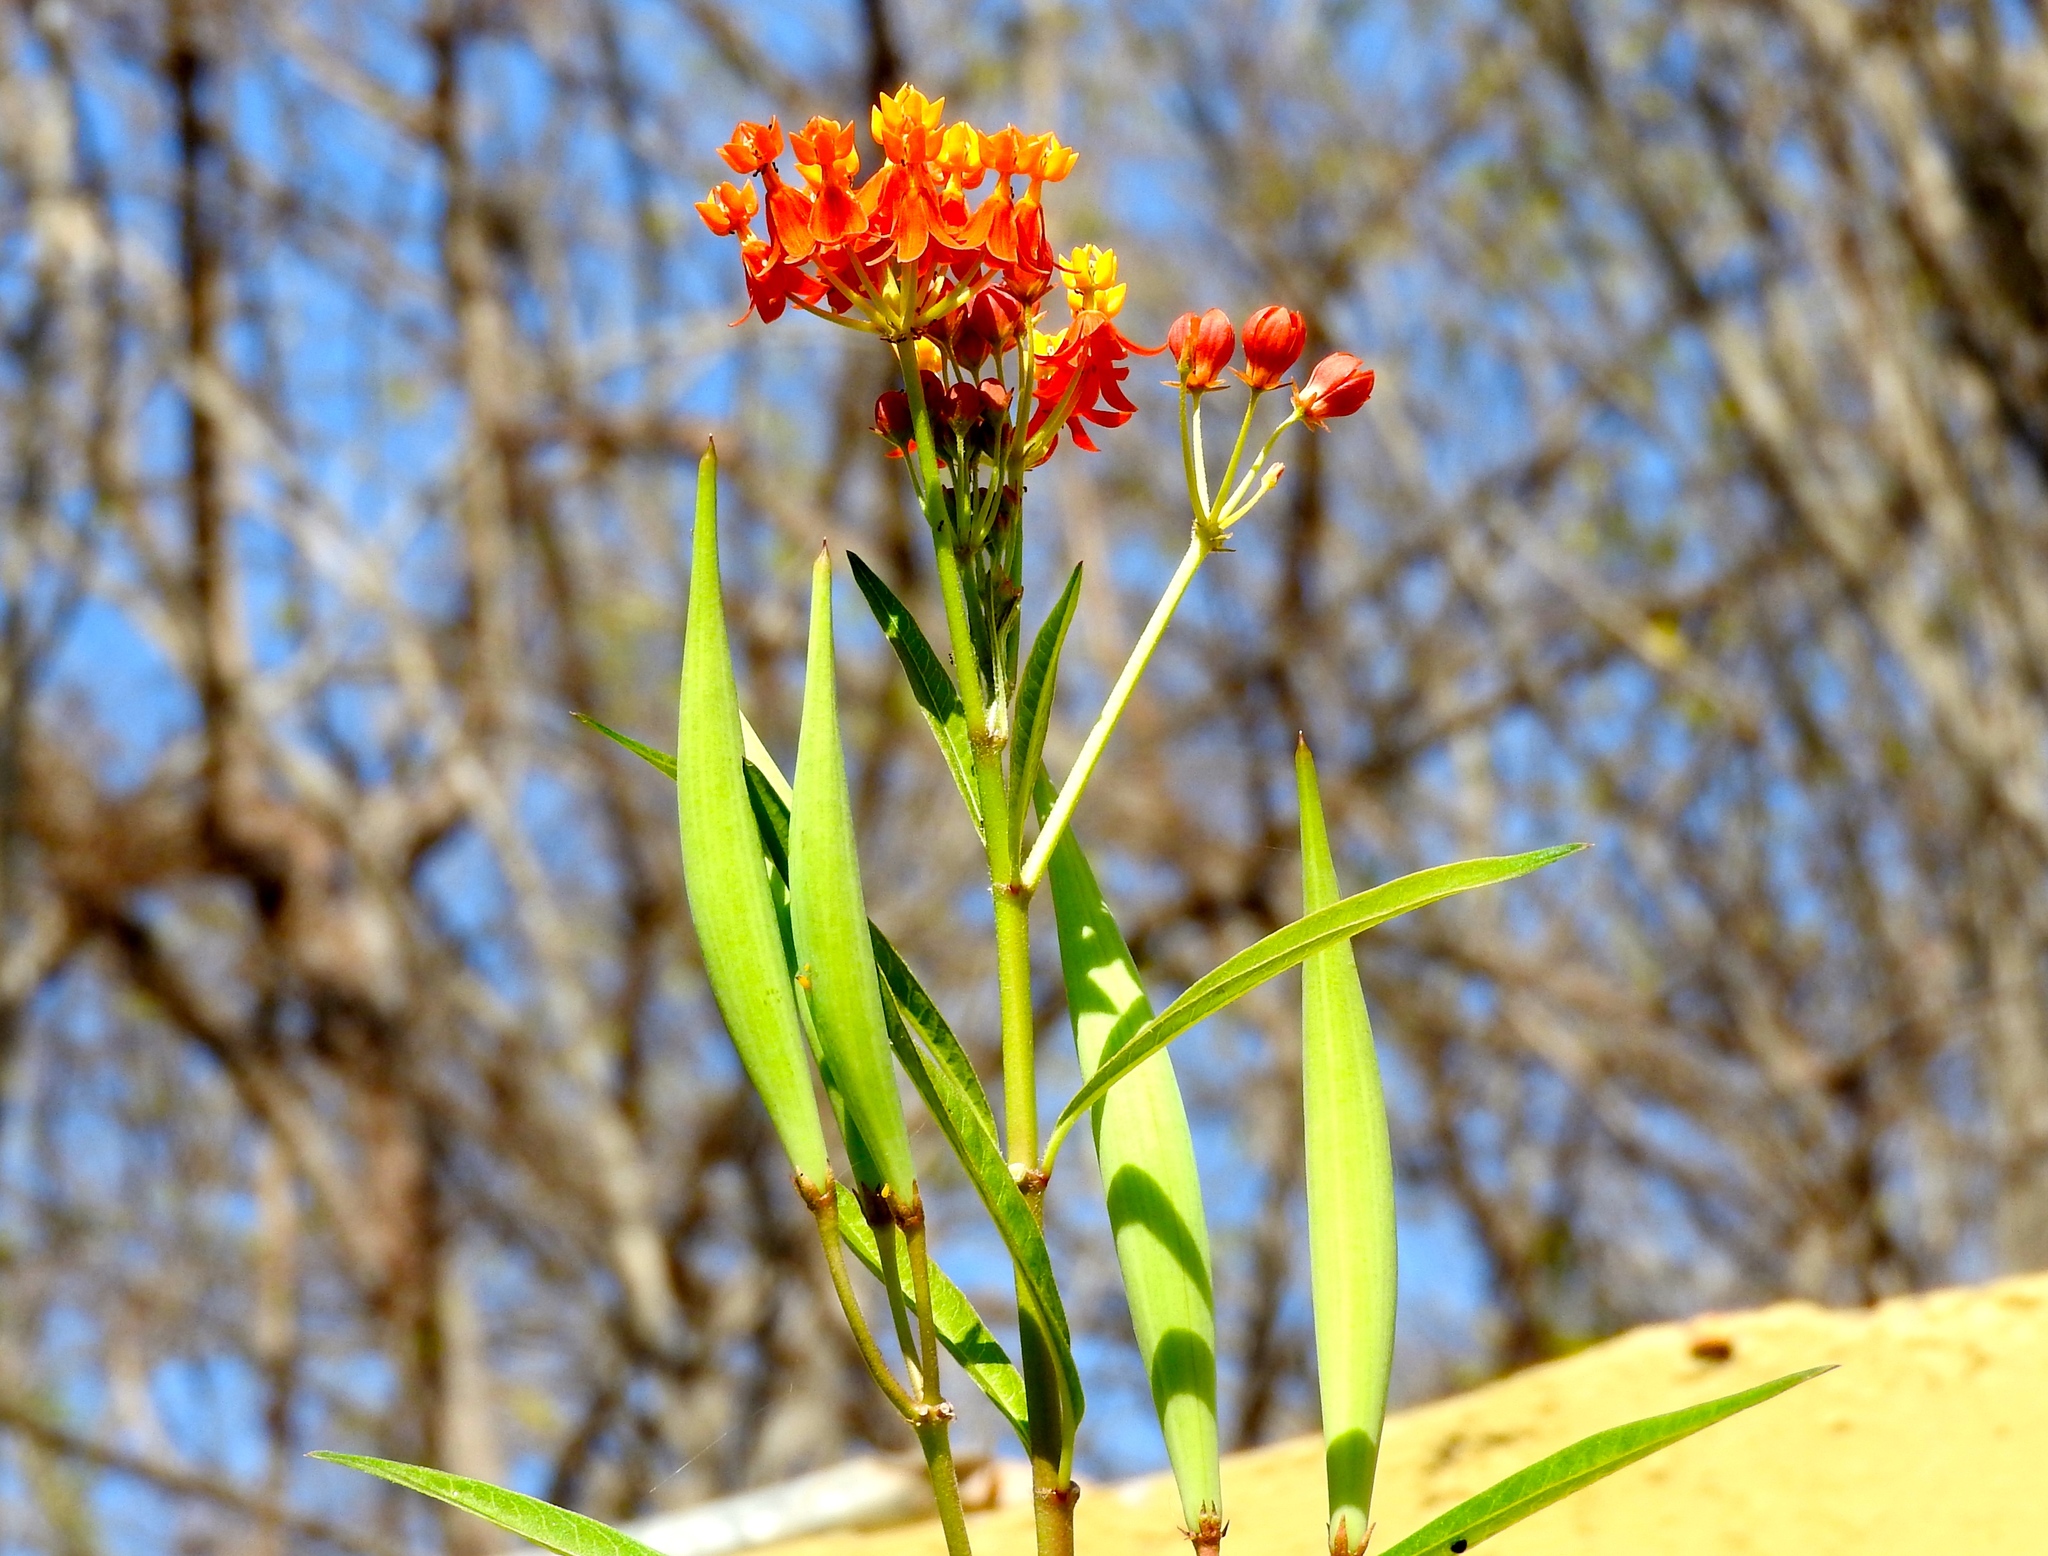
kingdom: Plantae
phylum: Tracheophyta
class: Magnoliopsida
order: Gentianales
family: Apocynaceae
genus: Asclepias
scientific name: Asclepias curassavica
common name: Bloodflower
